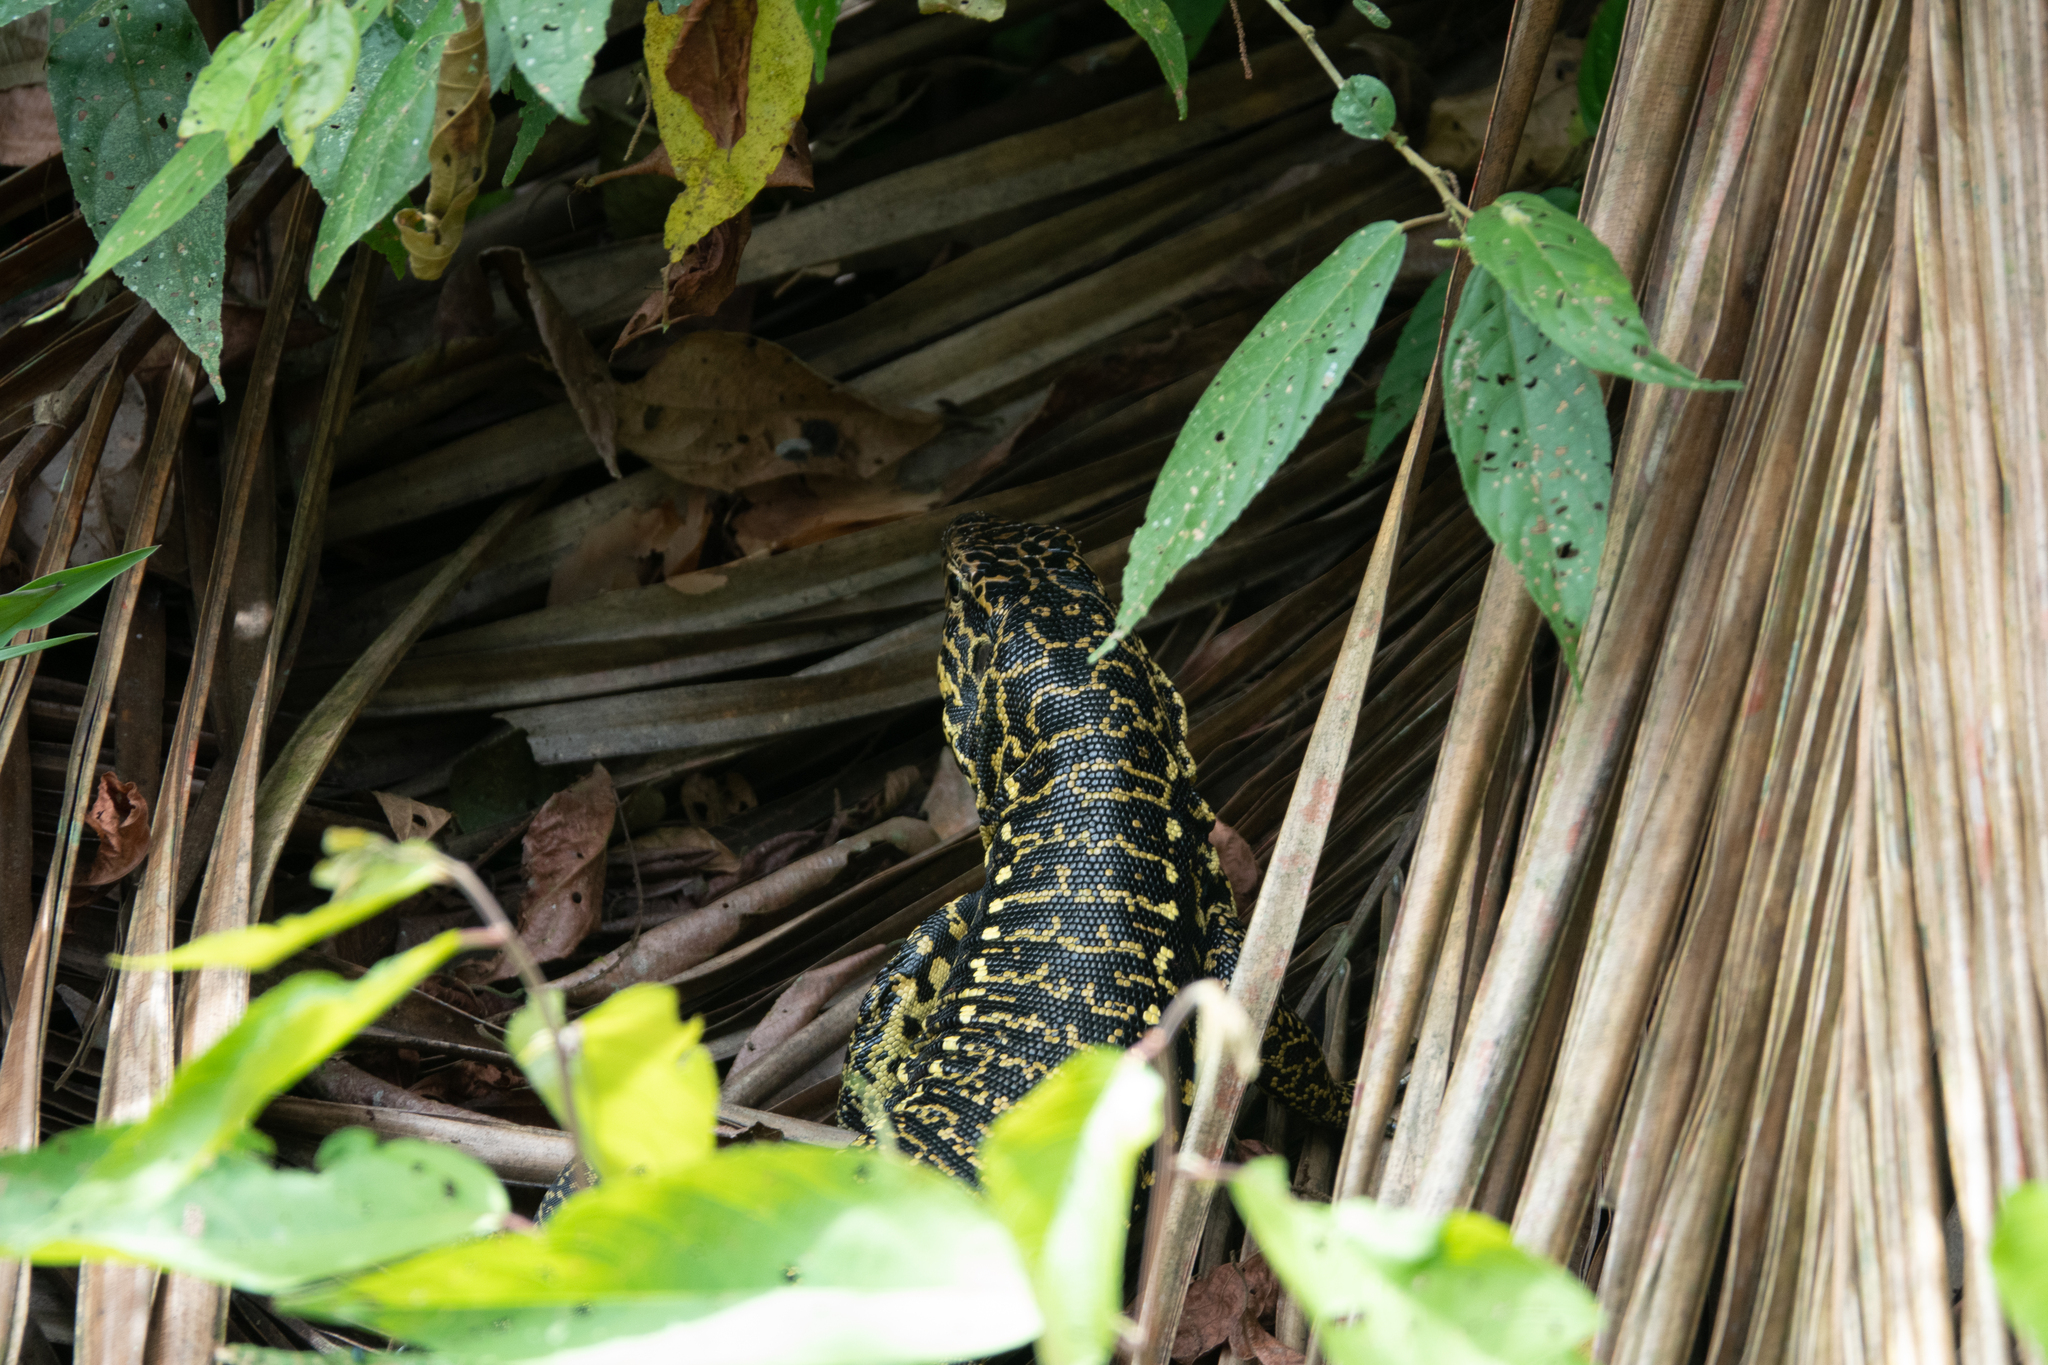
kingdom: Animalia
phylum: Chordata
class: Squamata
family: Teiidae
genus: Tupinambis
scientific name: Tupinambis cuzcoensis
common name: Cusco tegu lizard
